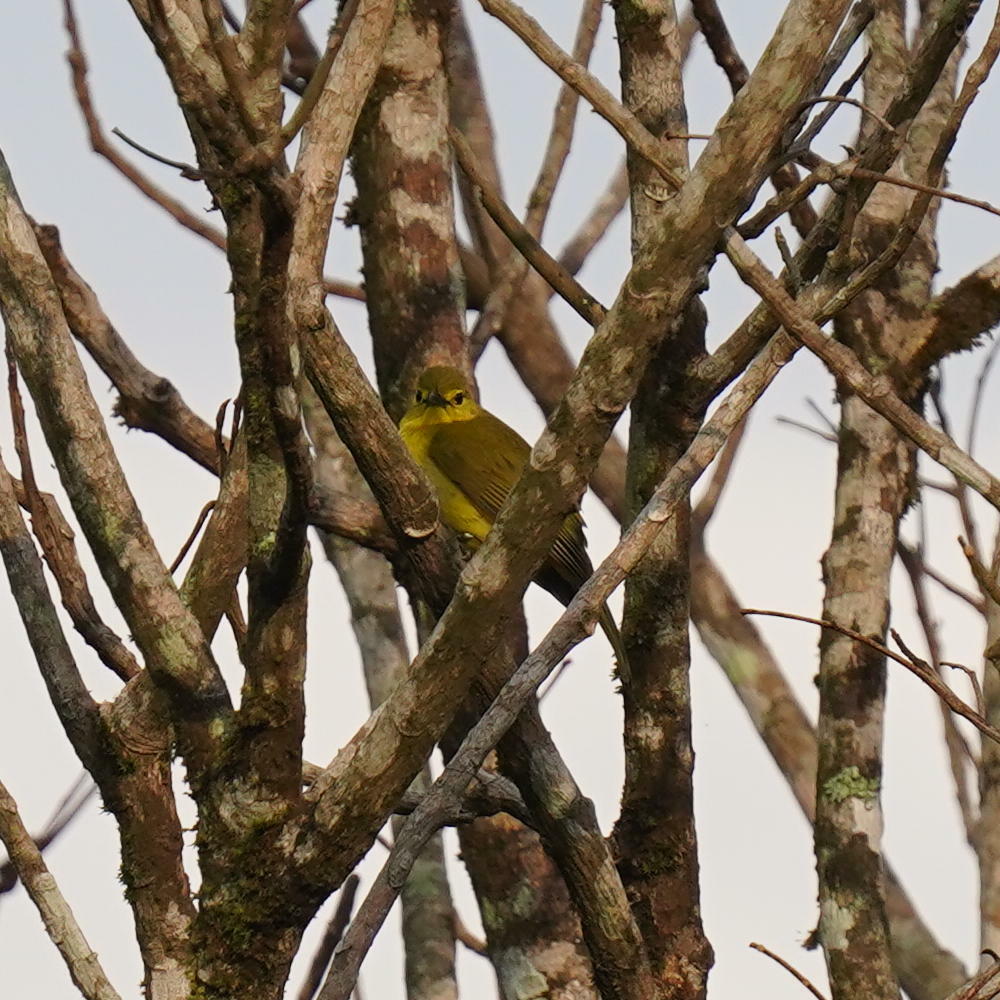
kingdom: Animalia
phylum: Chordata
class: Aves
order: Passeriformes
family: Pycnonotidae
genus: Acritillas
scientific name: Acritillas indica
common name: Yellow-browed bulbul
